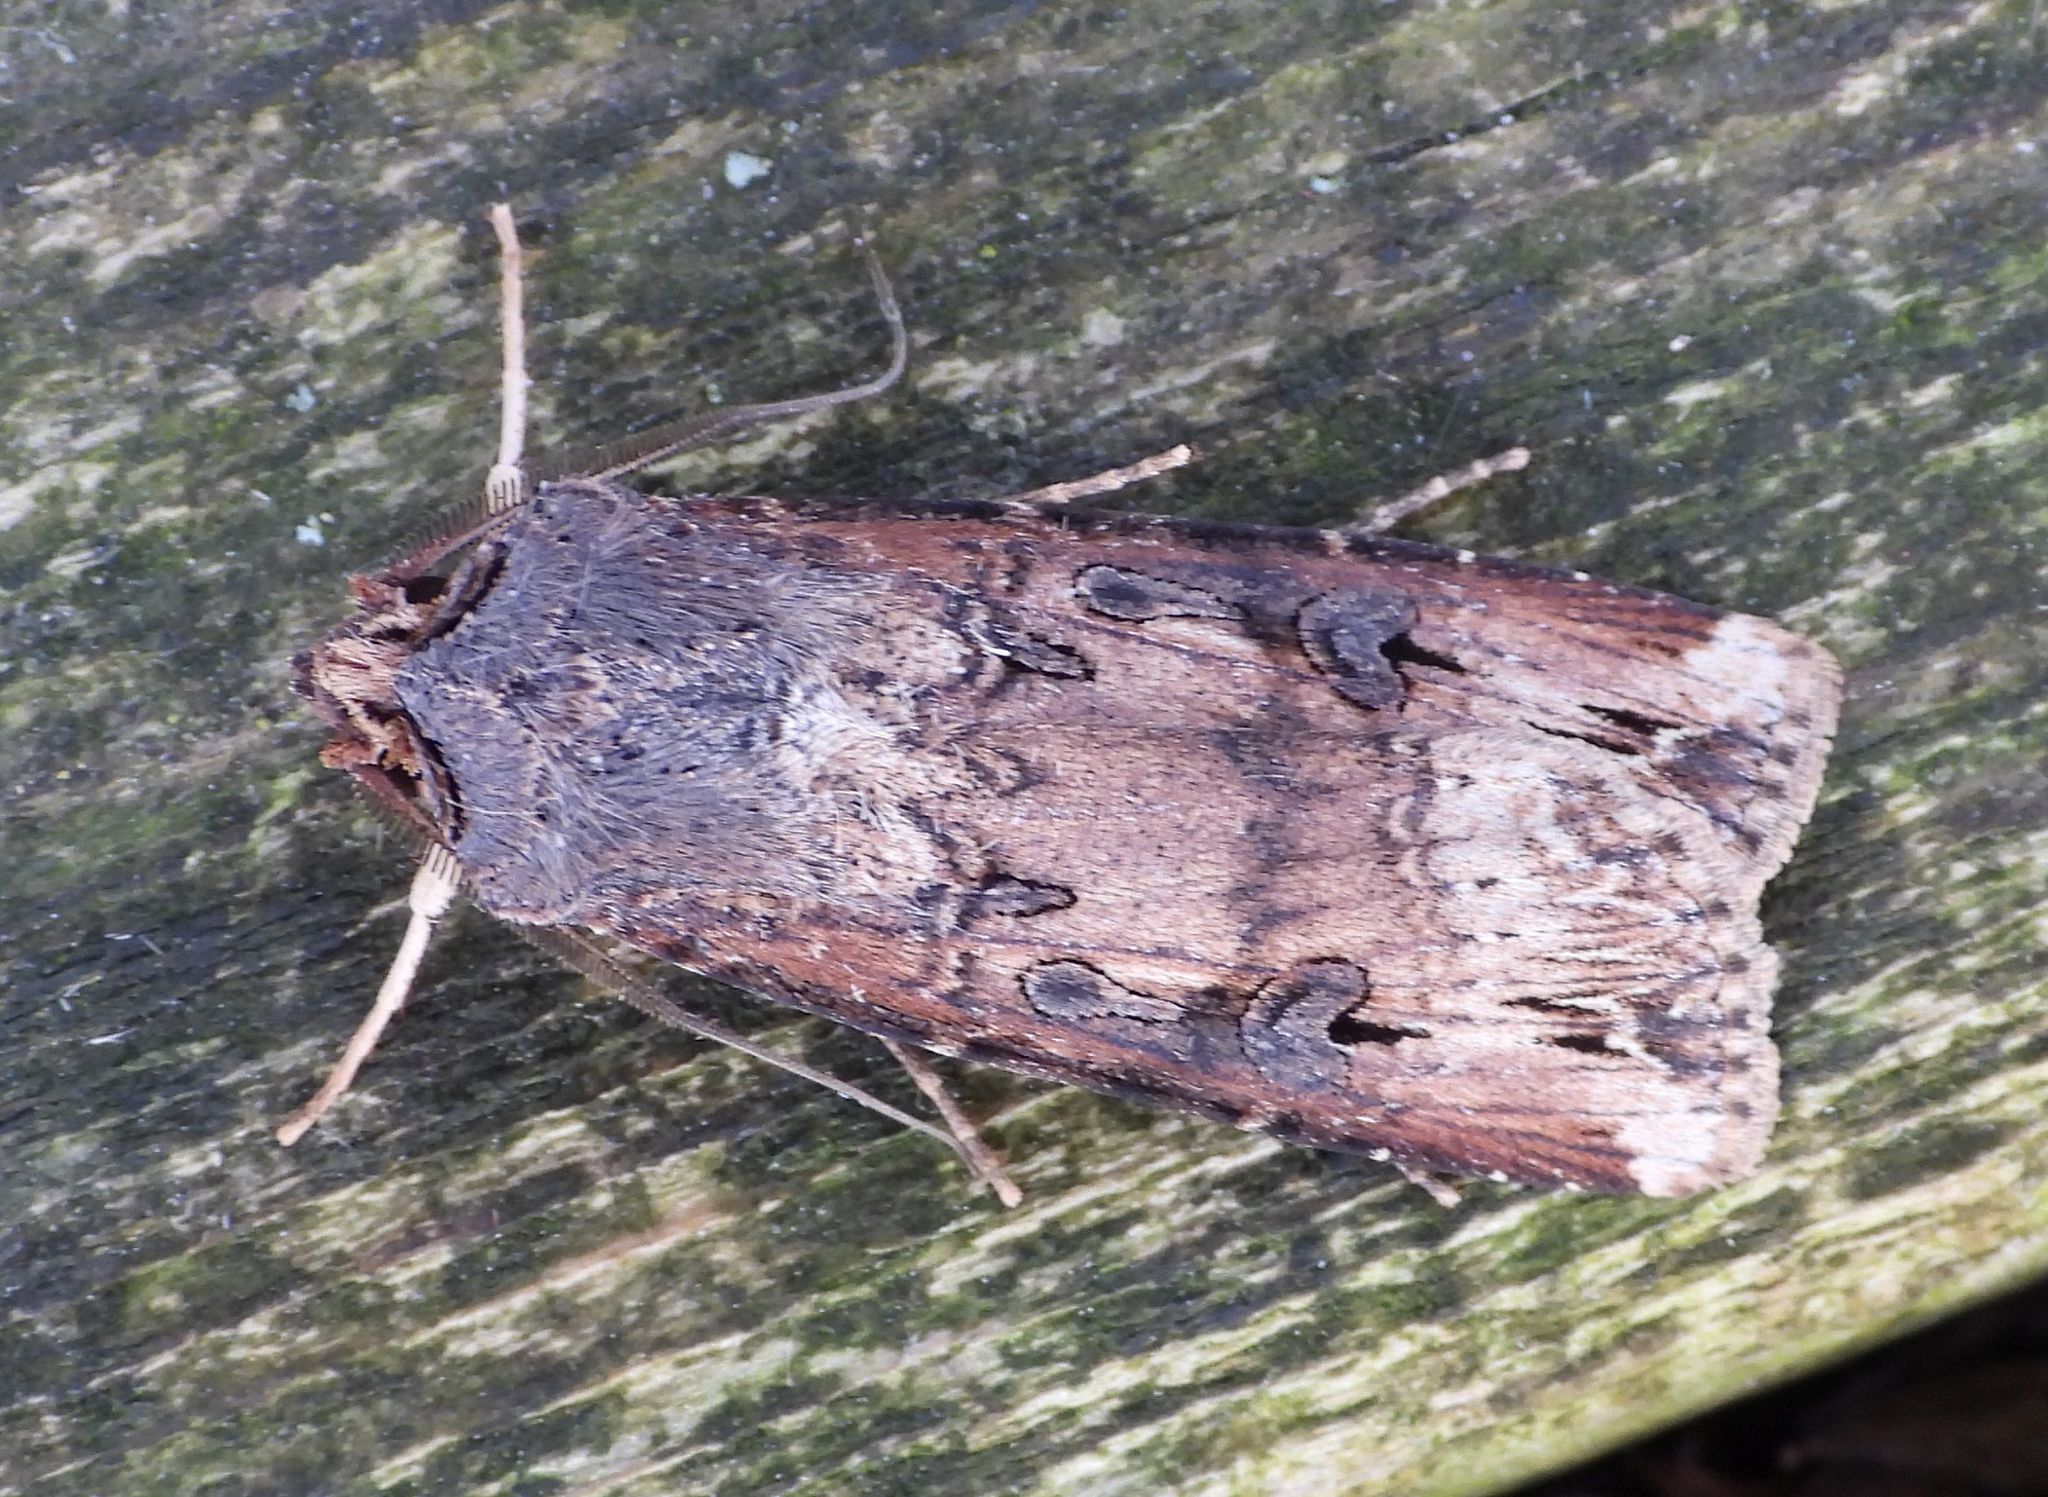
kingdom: Animalia
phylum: Arthropoda
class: Insecta
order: Lepidoptera
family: Noctuidae
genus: Agrotis
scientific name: Agrotis ipsilon
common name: Dark sword-grass
